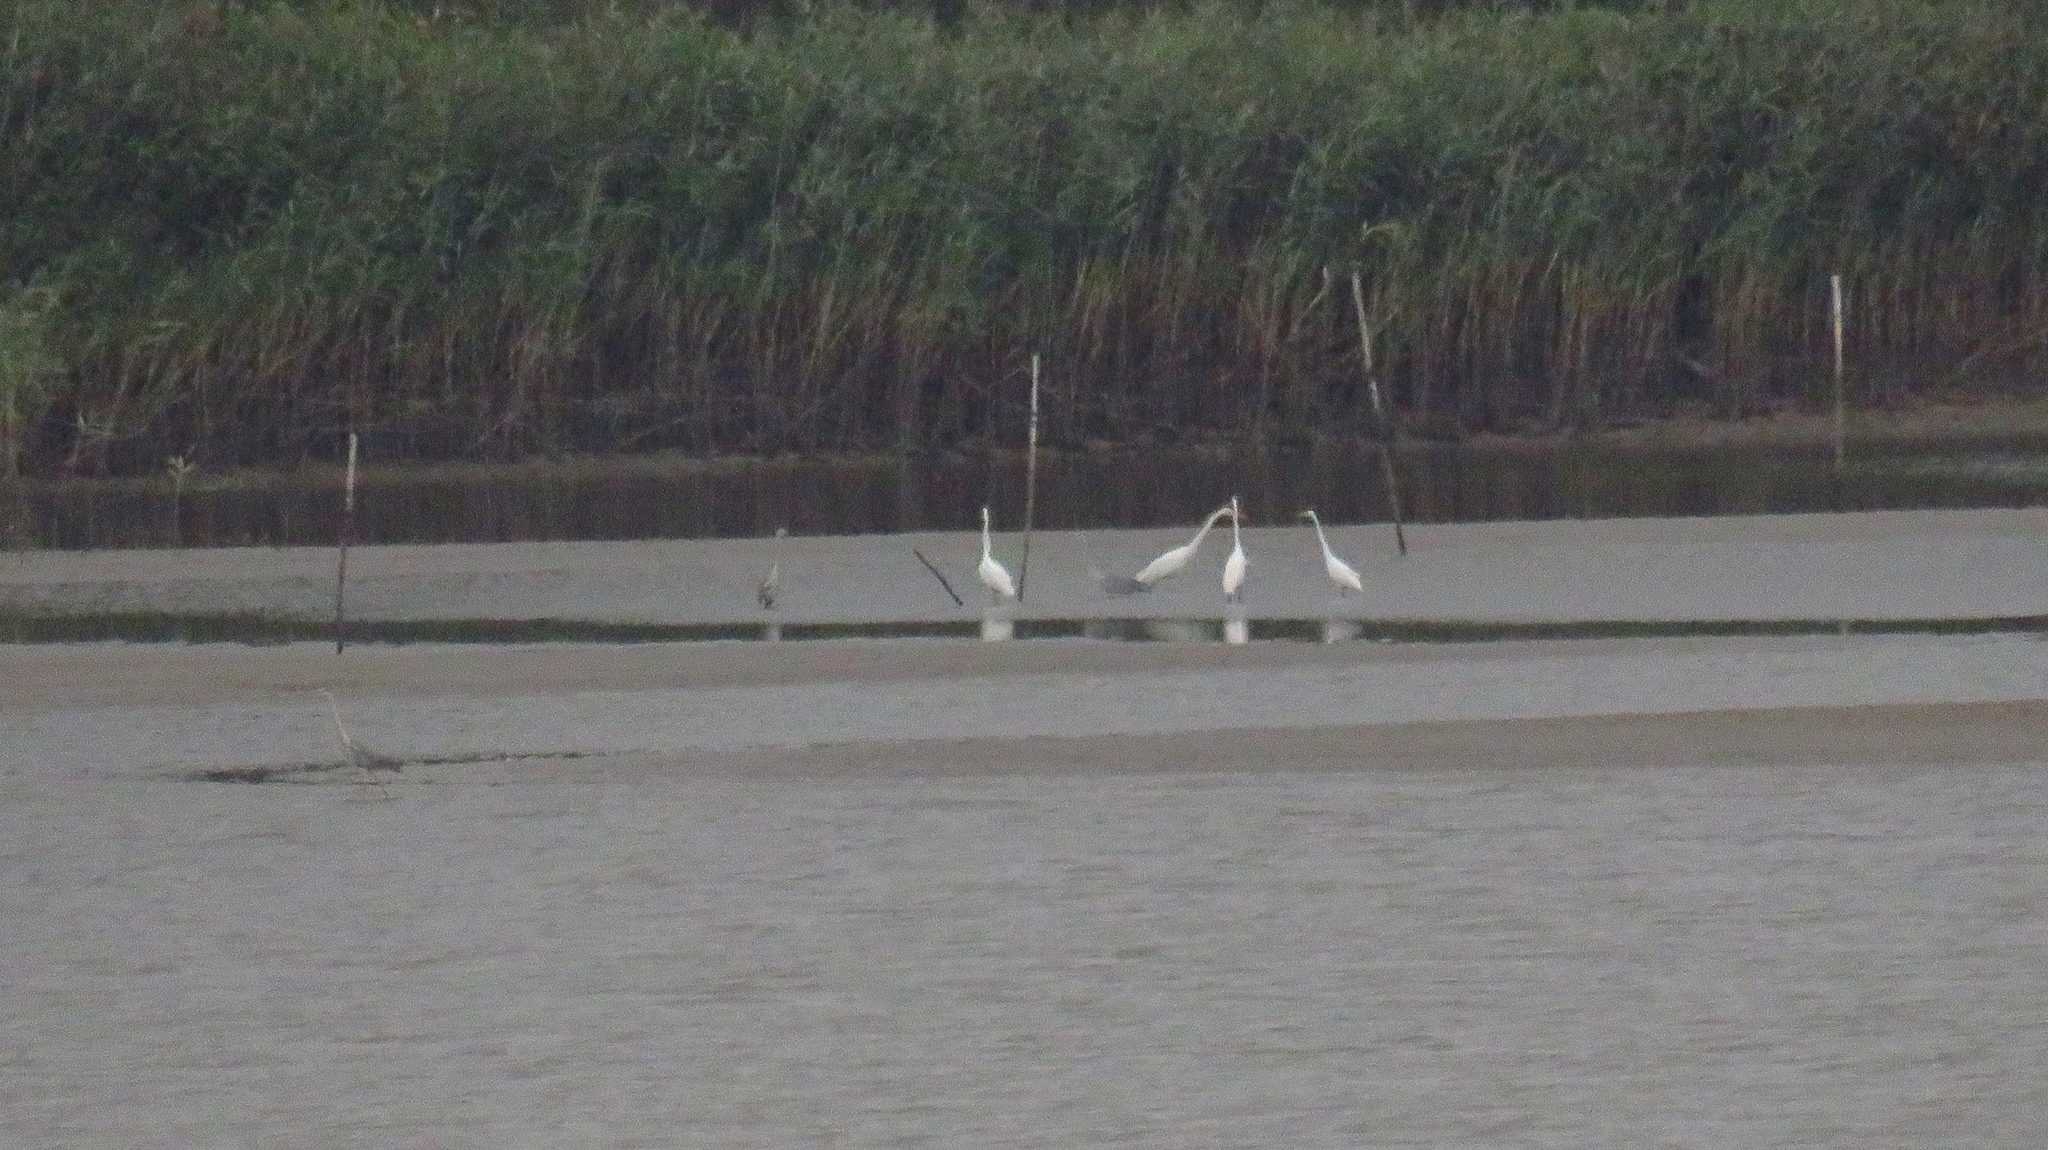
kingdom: Animalia
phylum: Chordata
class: Aves
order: Pelecaniformes
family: Ardeidae
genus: Ardea
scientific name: Ardea alba
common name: Great egret
